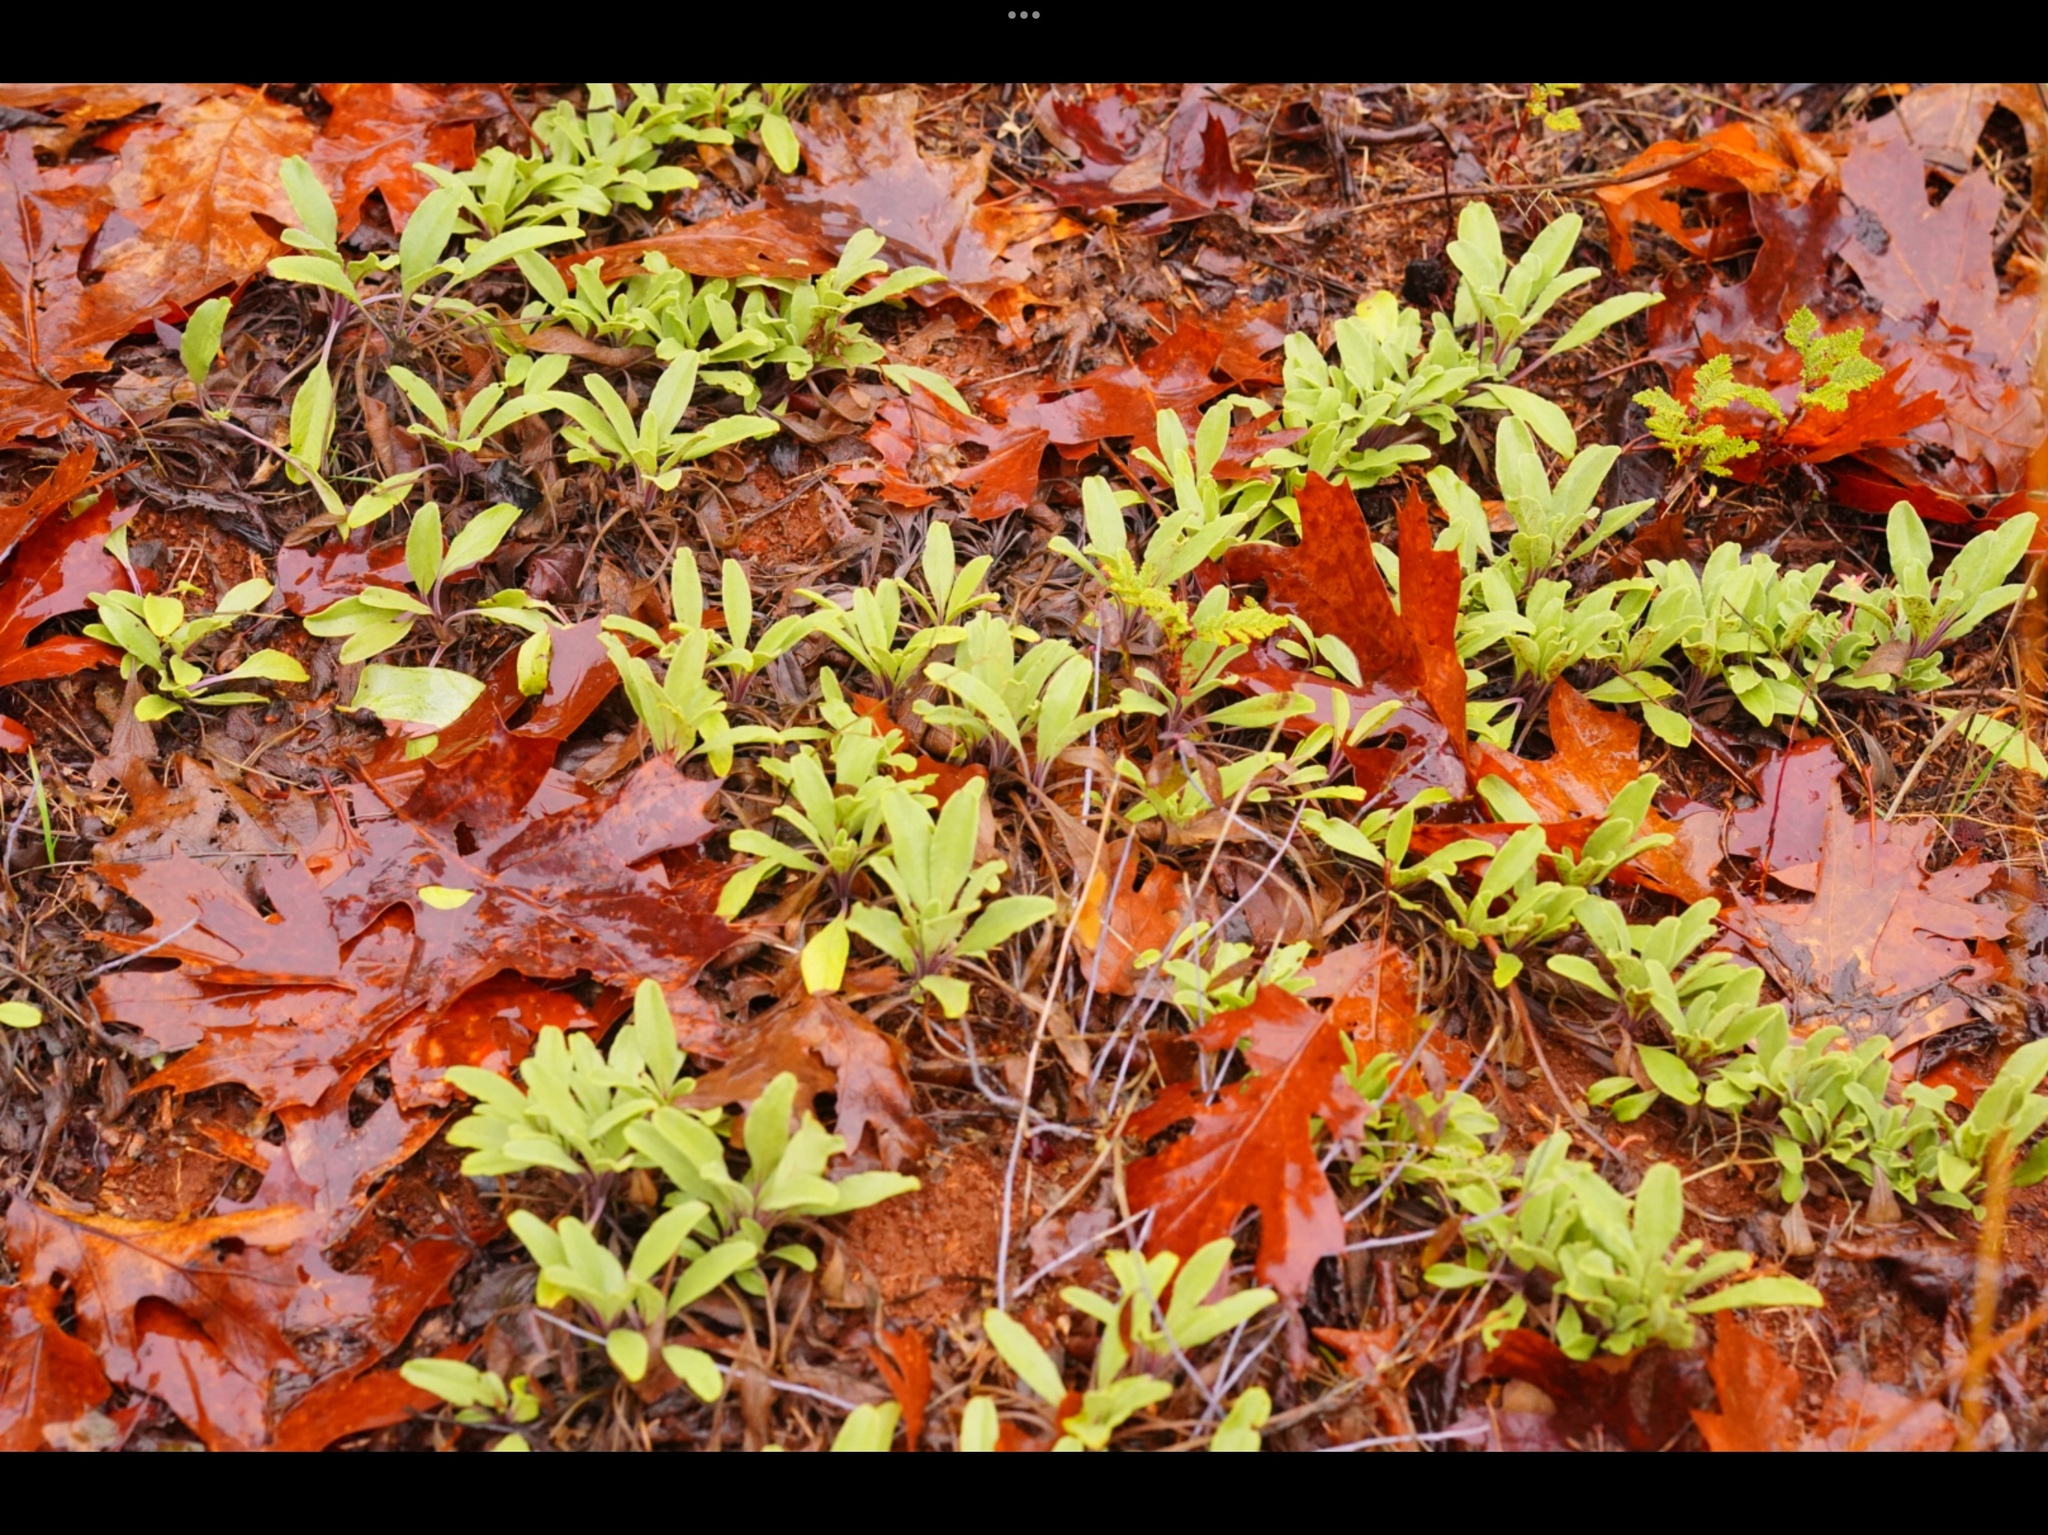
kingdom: Plantae
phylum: Tracheophyta
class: Magnoliopsida
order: Lamiales
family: Lamiaceae
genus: Salvia
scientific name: Salvia sonomensis
